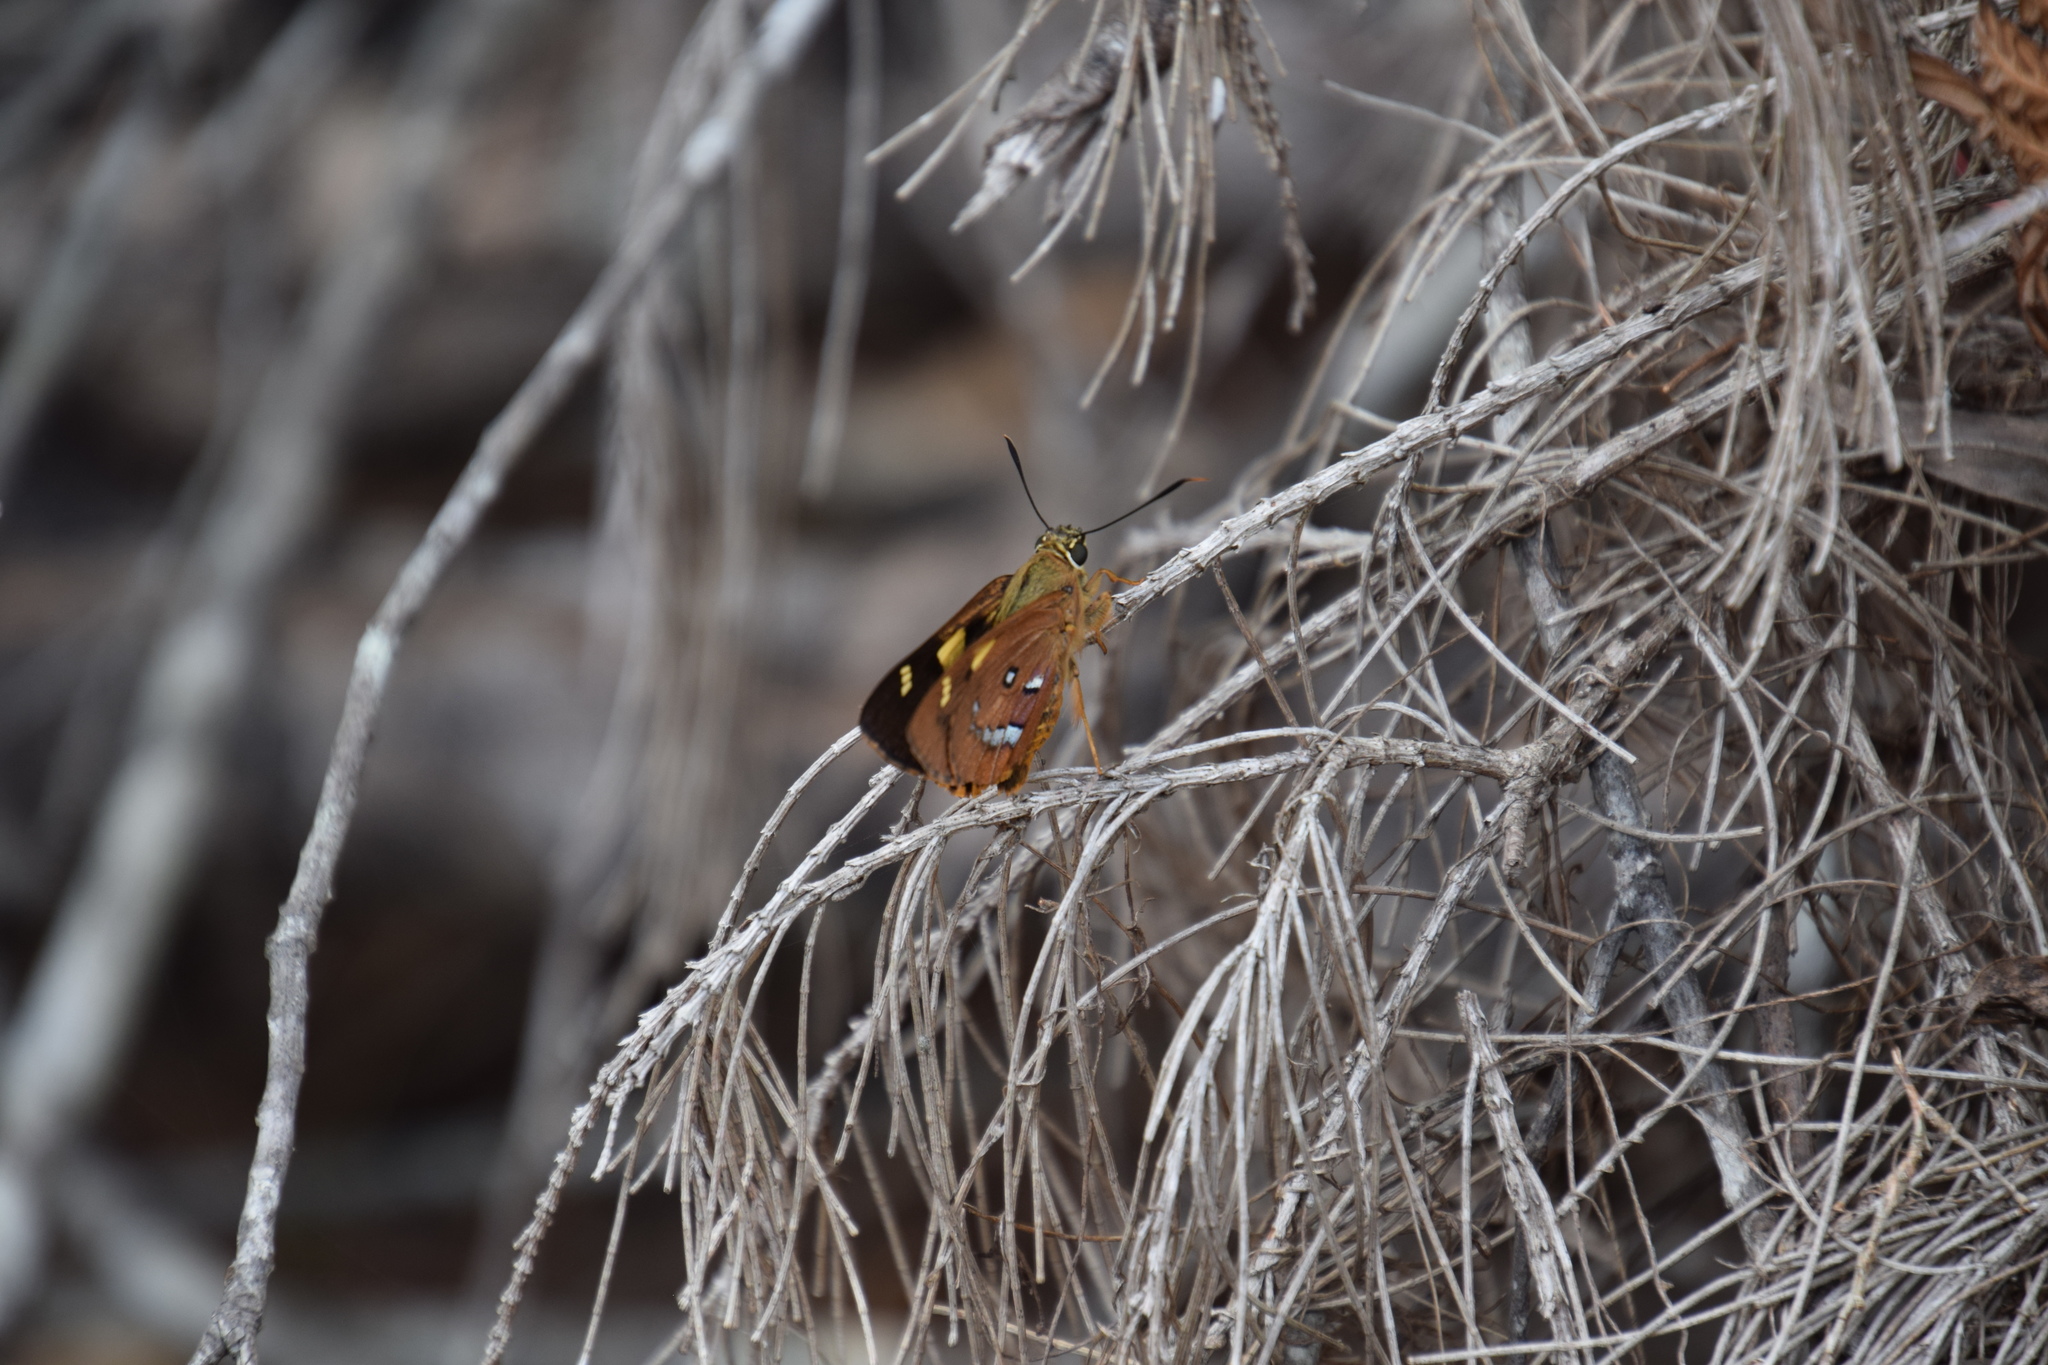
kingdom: Animalia
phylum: Arthropoda
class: Insecta
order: Lepidoptera
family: Hesperiidae
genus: Trapezites
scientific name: Trapezites symmomus
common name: Splendid ochre
